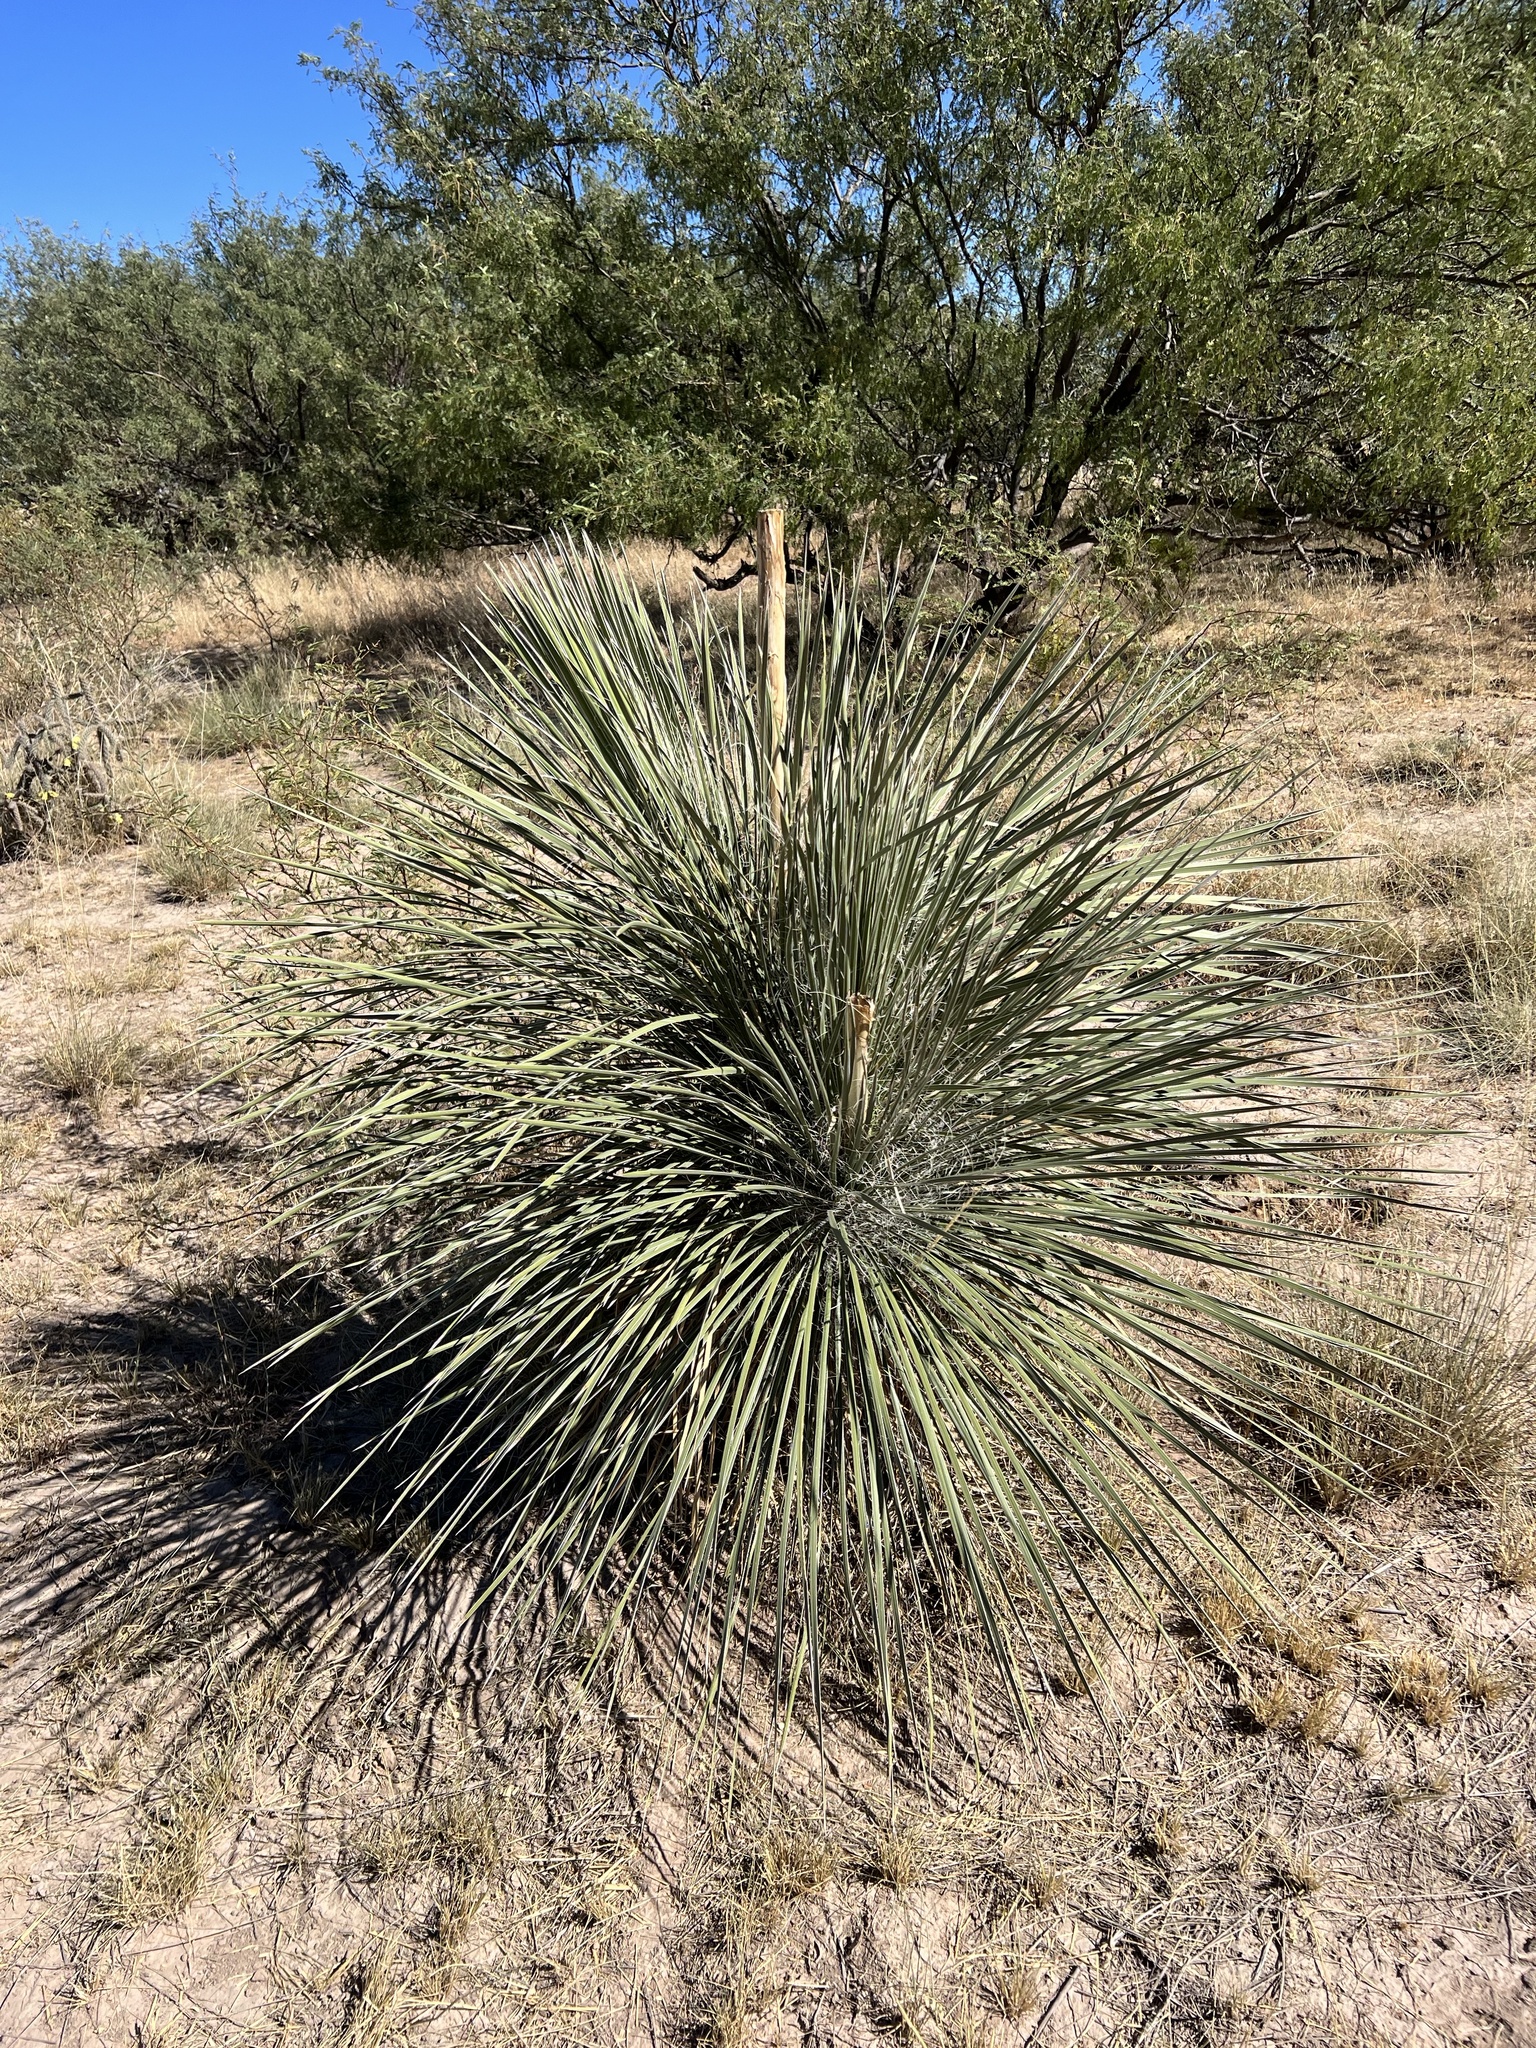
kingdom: Plantae
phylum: Tracheophyta
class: Liliopsida
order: Asparagales
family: Asparagaceae
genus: Yucca
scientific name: Yucca elata
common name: Palmella
